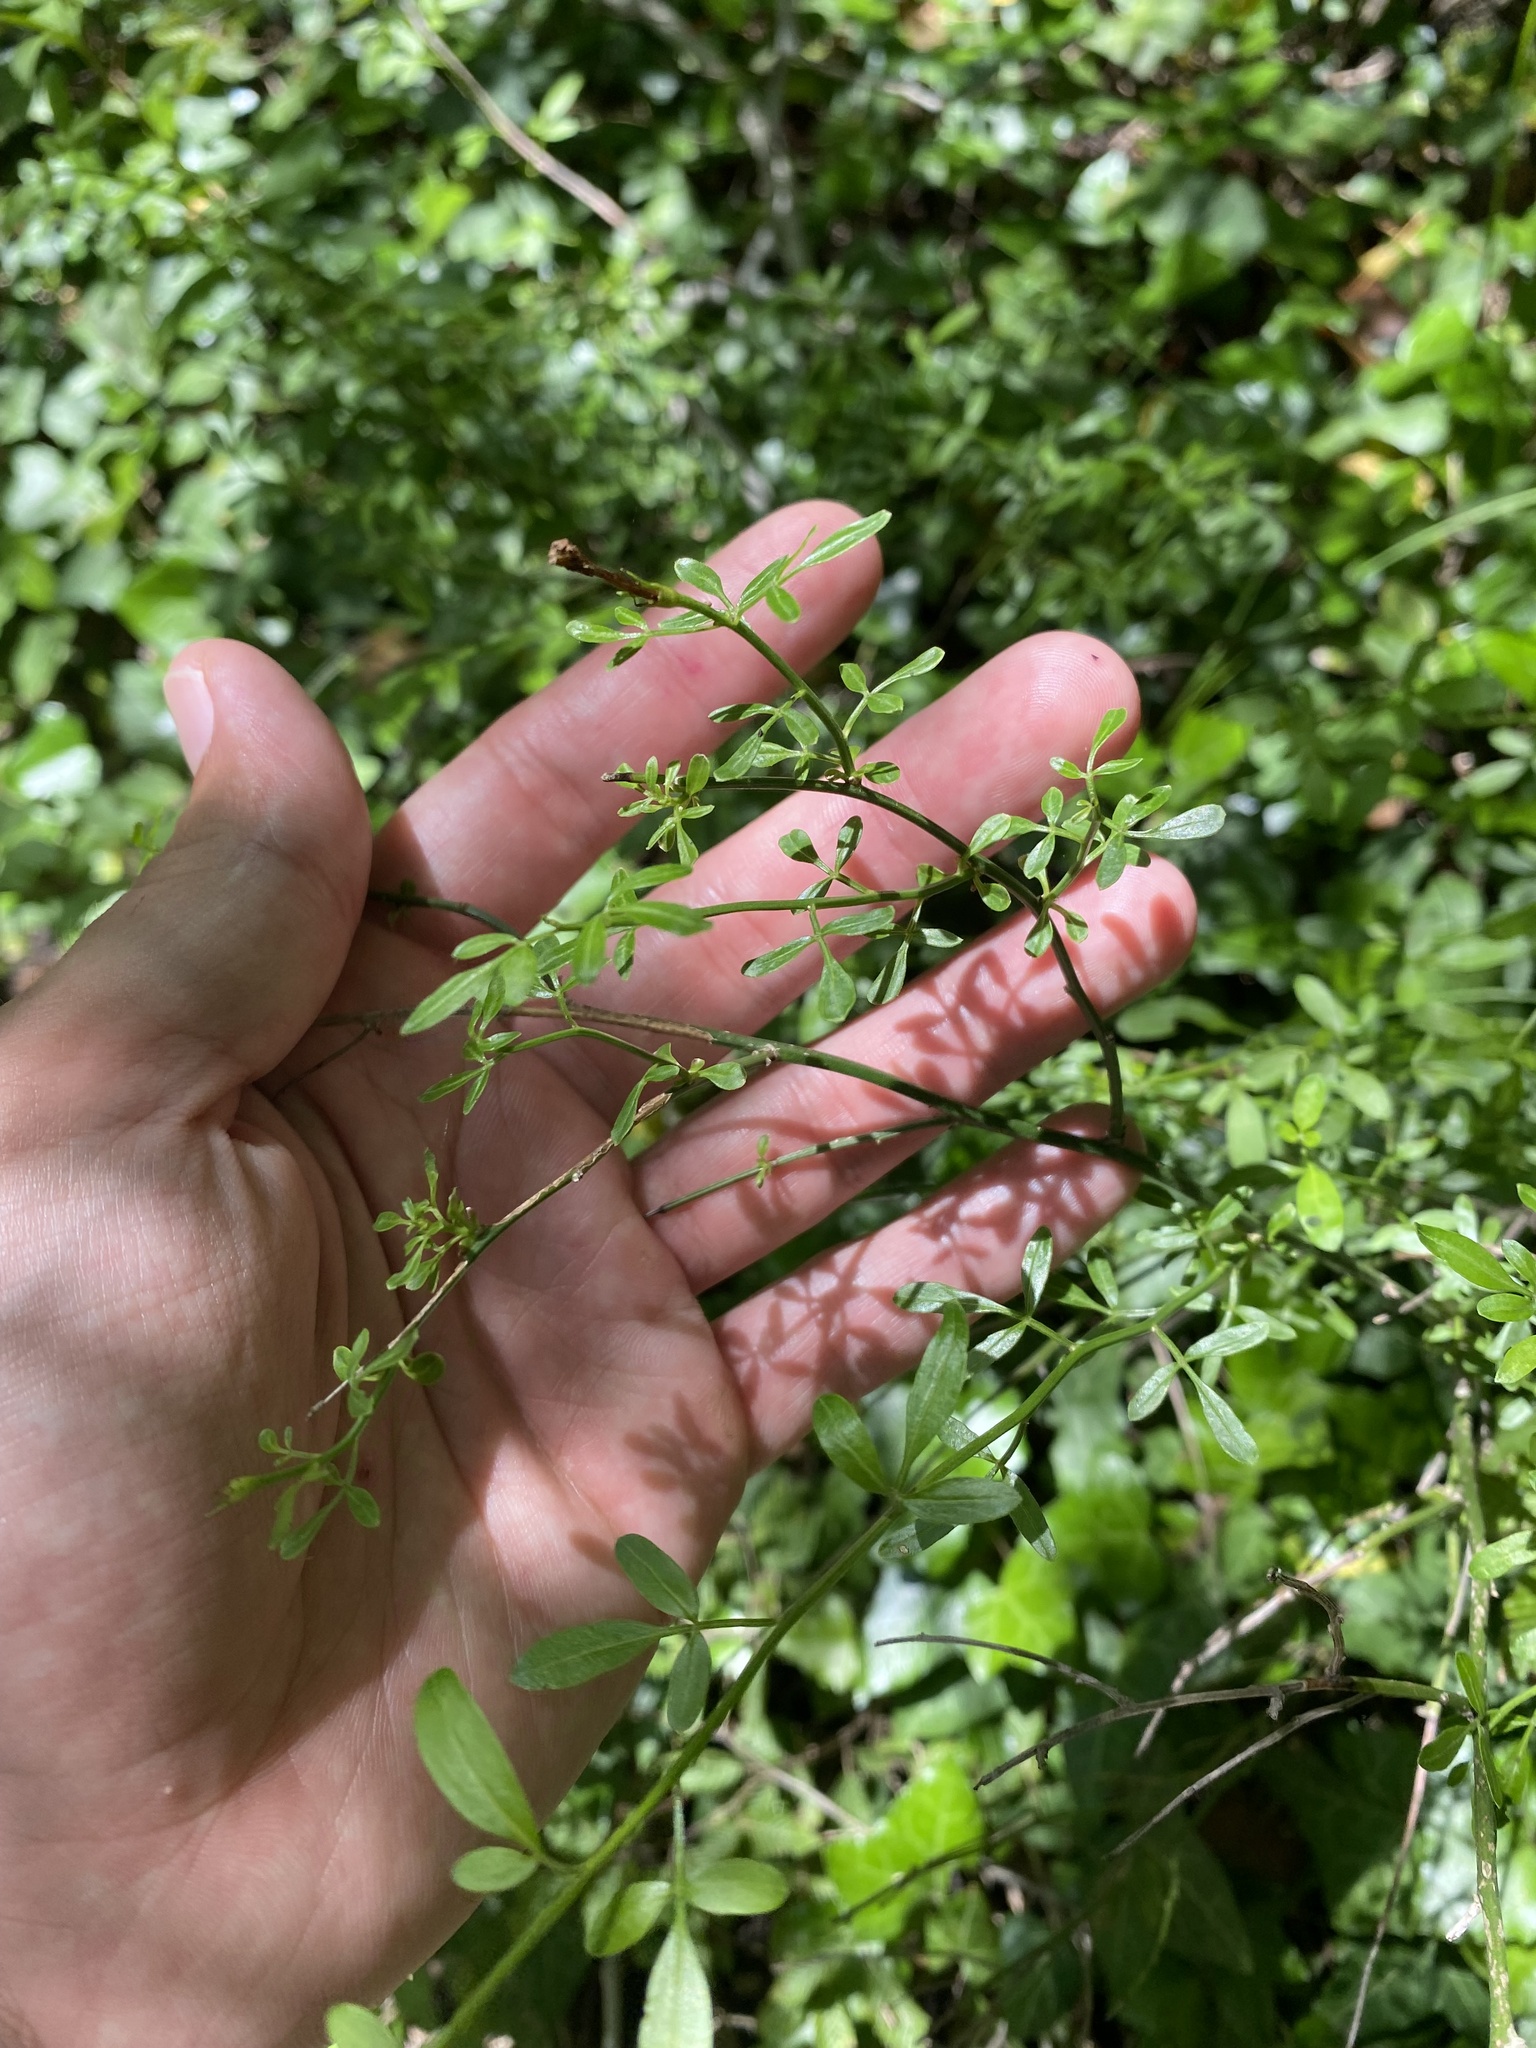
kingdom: Plantae
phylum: Tracheophyta
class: Magnoliopsida
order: Lamiales
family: Oleaceae
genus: Chrysojasminum
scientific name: Chrysojasminum fruticans
